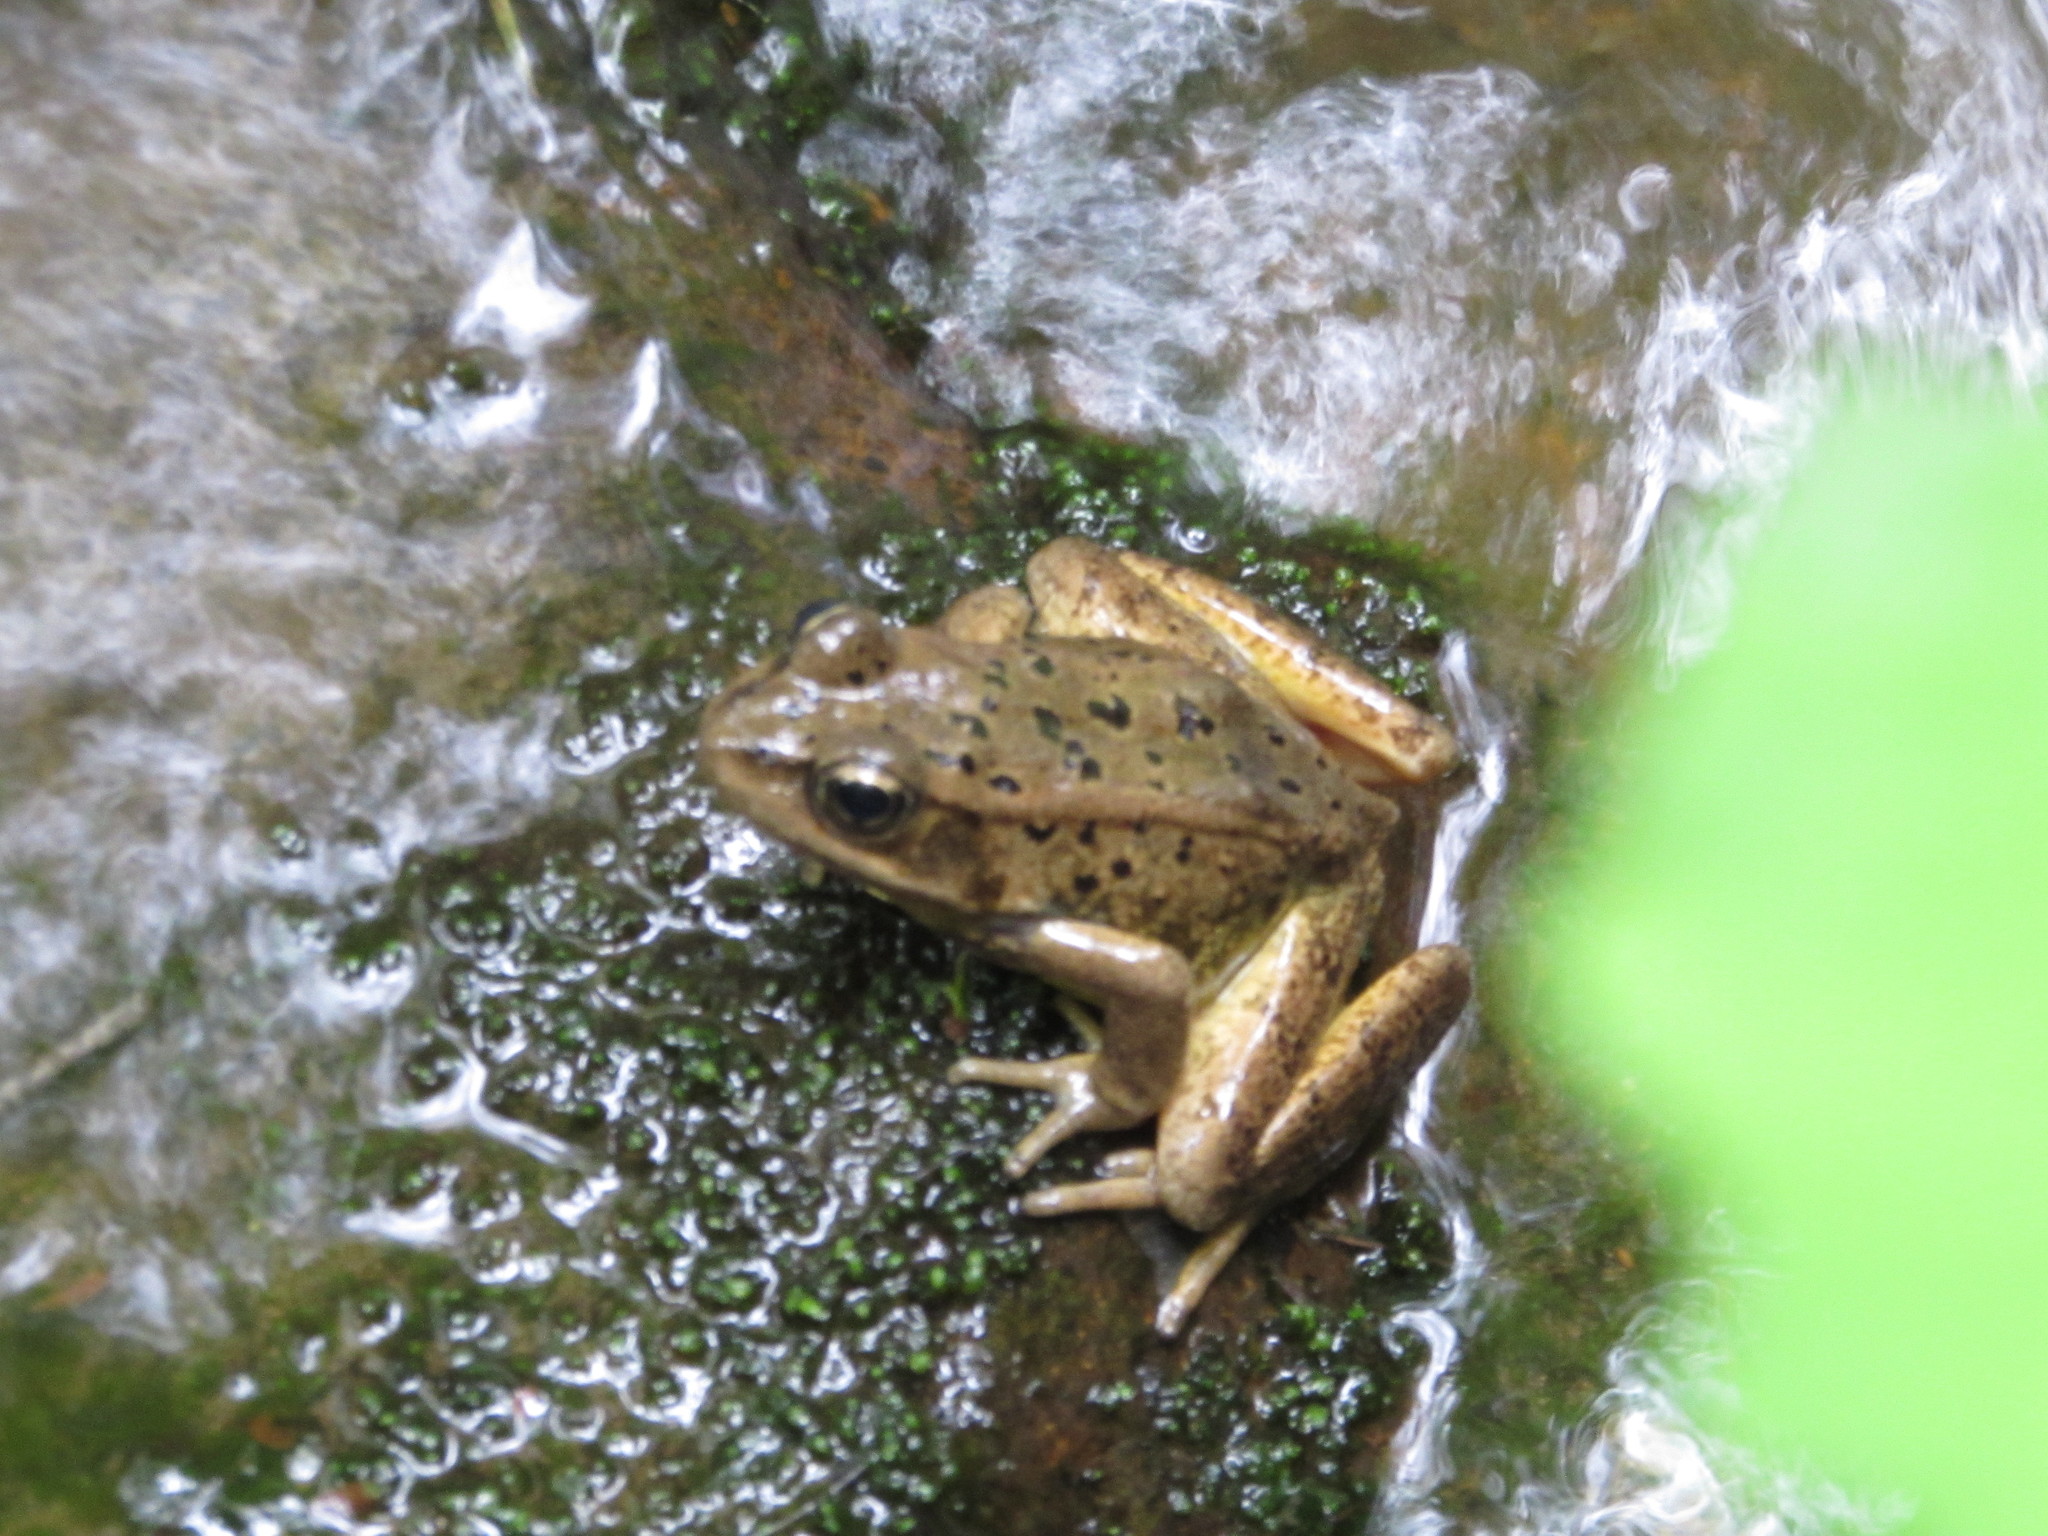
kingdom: Animalia
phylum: Chordata
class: Amphibia
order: Anura
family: Ranidae
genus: Rana
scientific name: Rana cascadae
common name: Cascades frog
